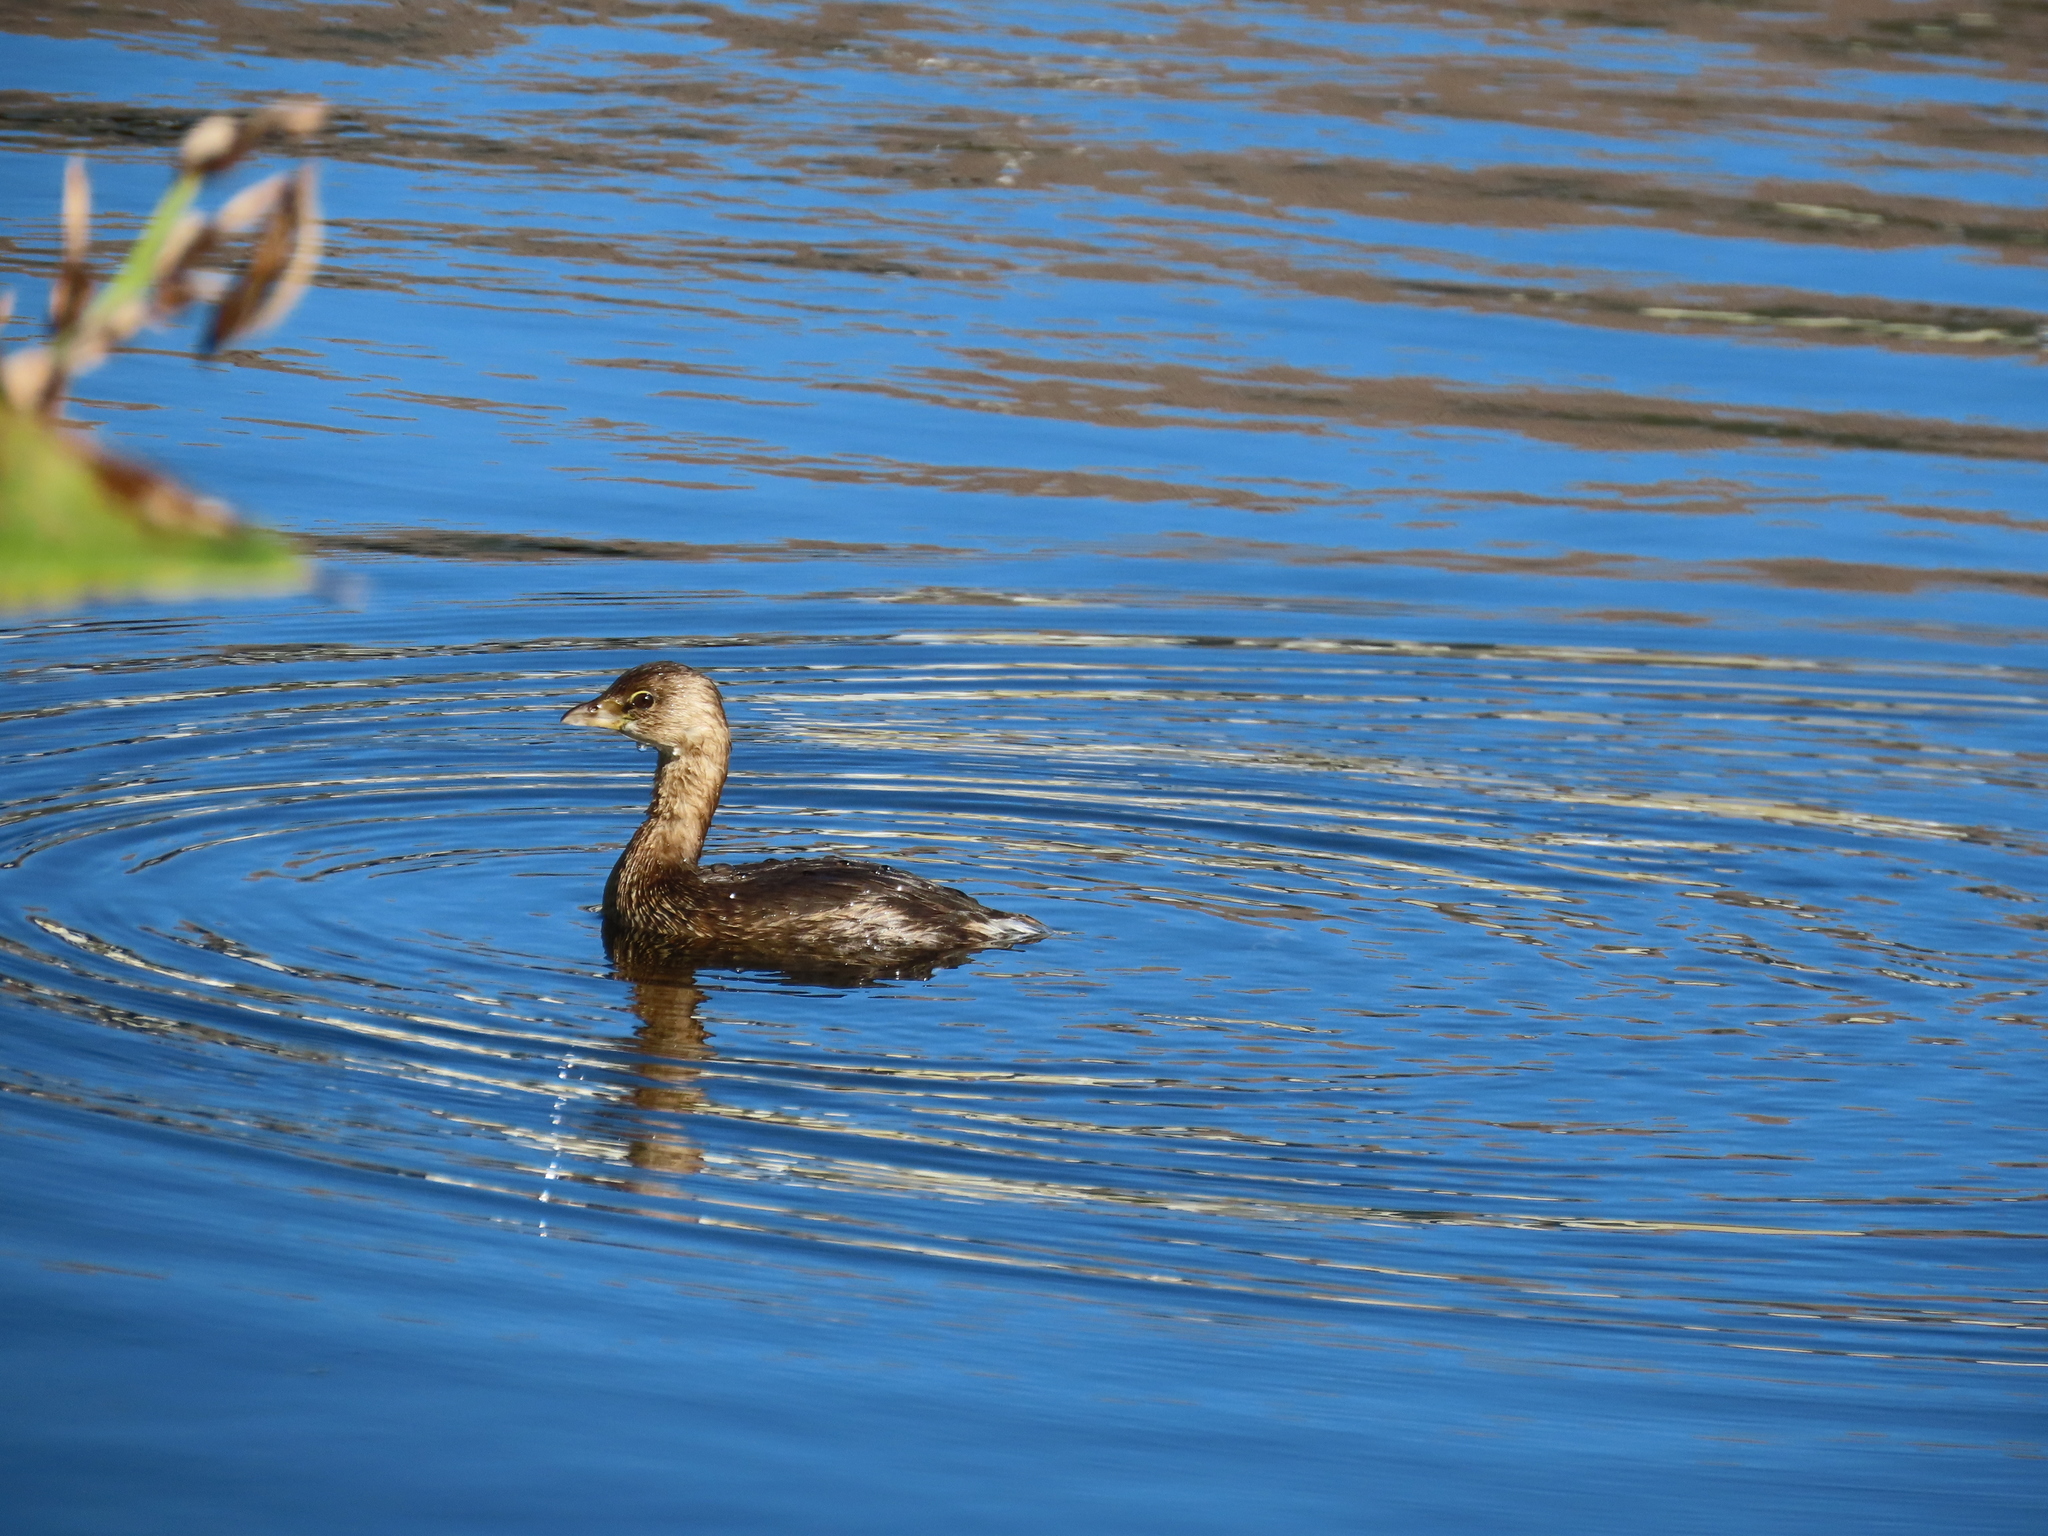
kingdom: Animalia
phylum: Chordata
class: Aves
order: Podicipediformes
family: Podicipedidae
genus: Podilymbus
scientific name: Podilymbus podiceps
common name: Pied-billed grebe
